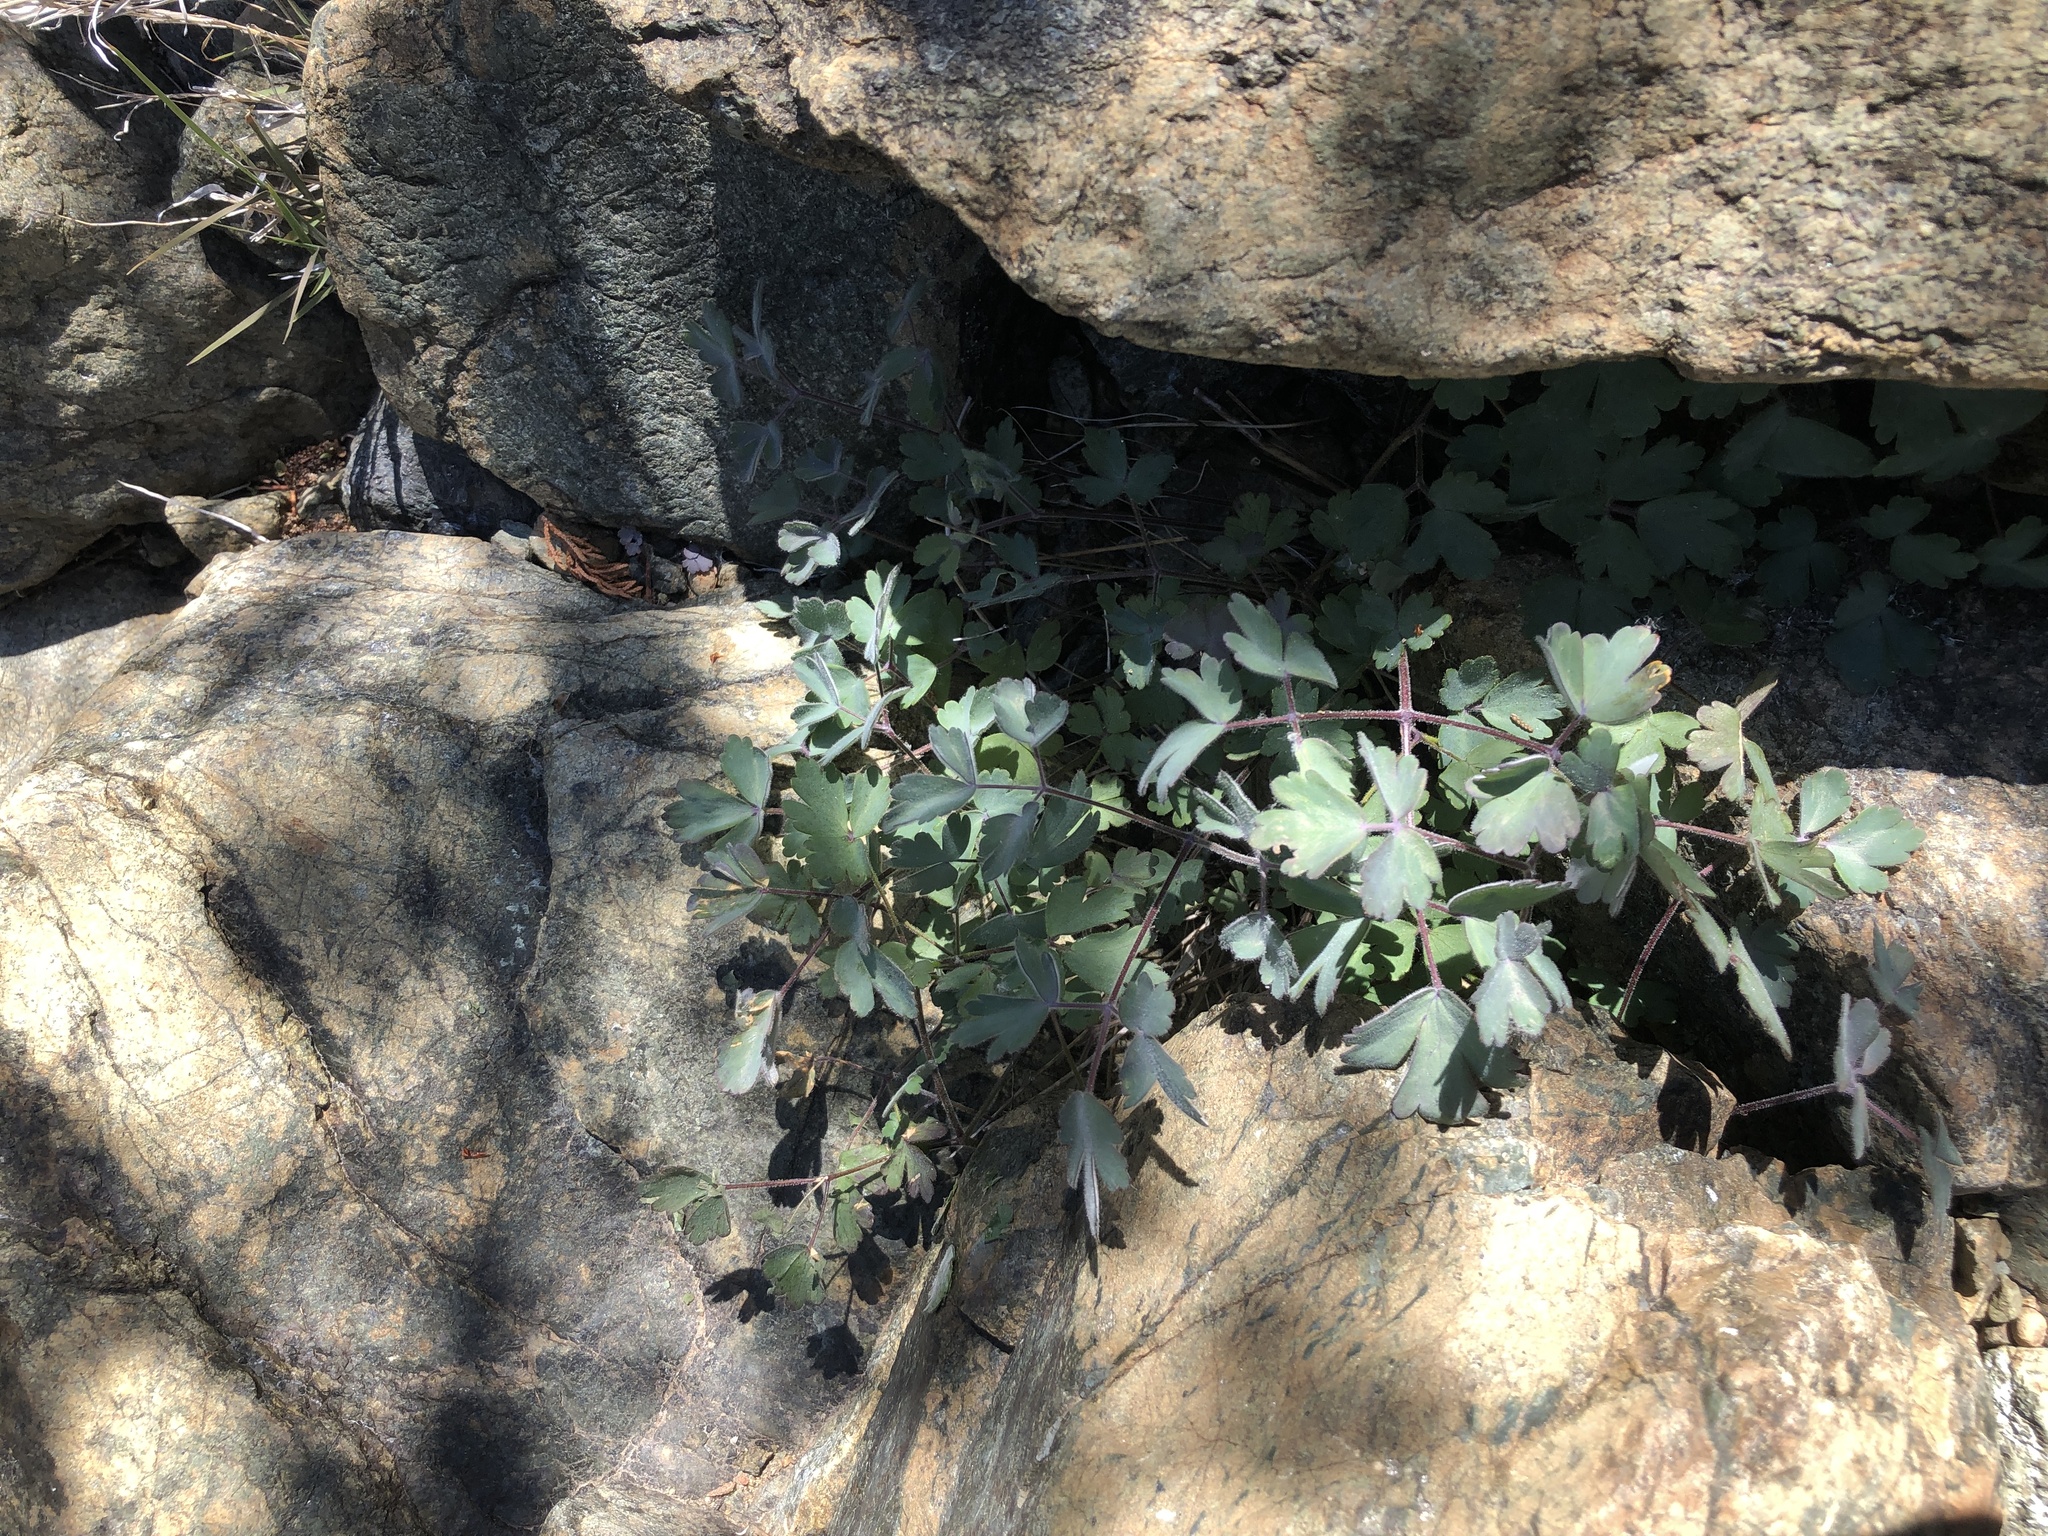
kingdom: Plantae
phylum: Tracheophyta
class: Magnoliopsida
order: Ranunculales
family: Ranunculaceae
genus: Aquilegia
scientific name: Aquilegia eximia
